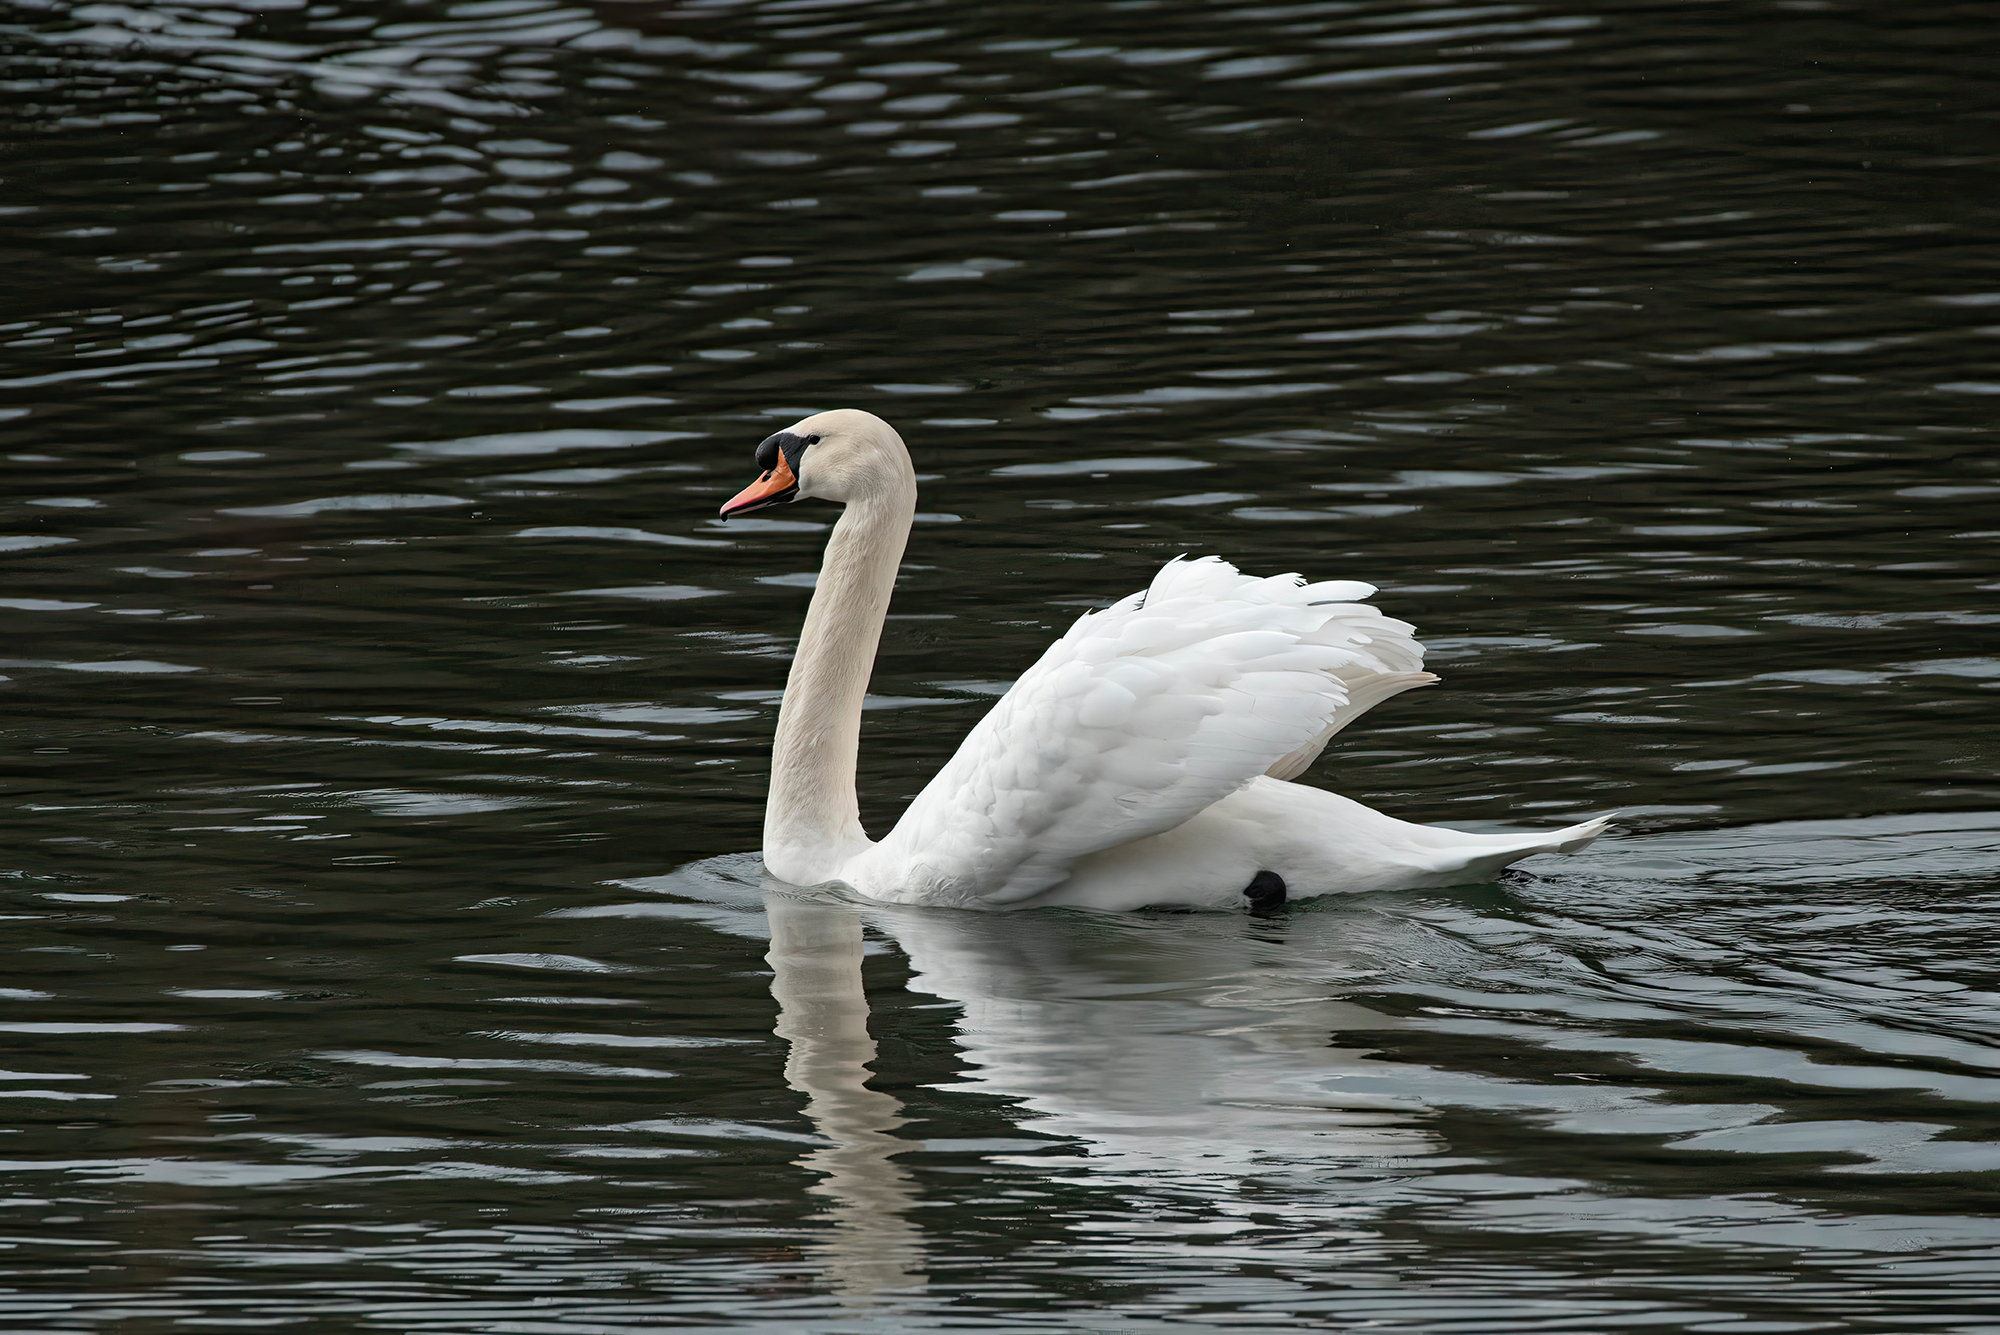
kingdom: Animalia
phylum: Chordata
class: Aves
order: Anseriformes
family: Anatidae
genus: Cygnus
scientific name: Cygnus olor
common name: Mute swan
